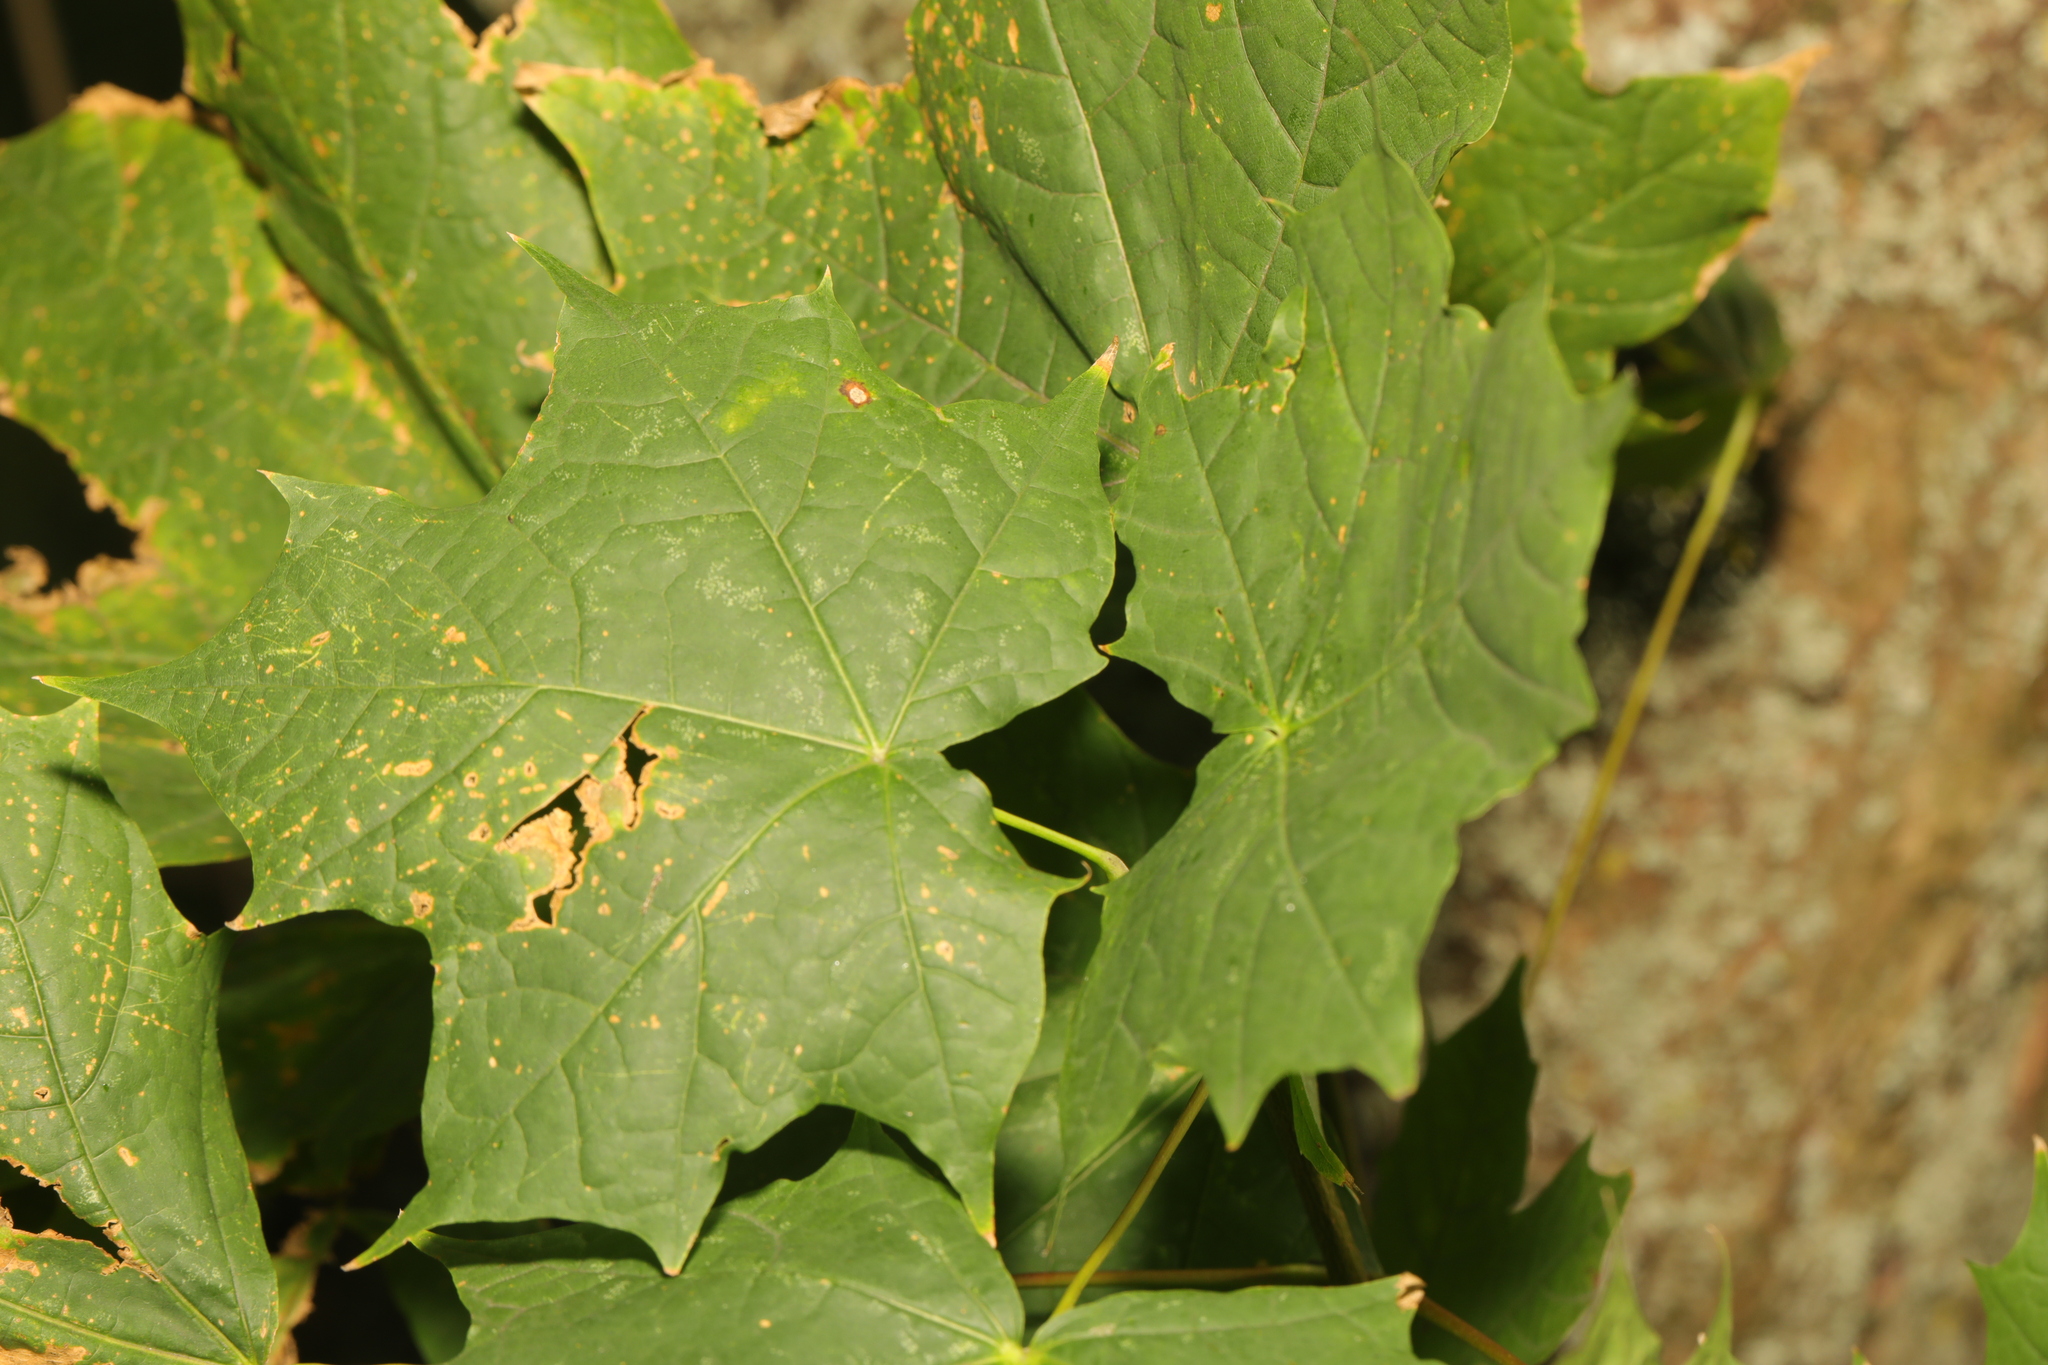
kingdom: Plantae
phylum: Tracheophyta
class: Magnoliopsida
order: Sapindales
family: Sapindaceae
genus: Acer
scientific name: Acer platanoides
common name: Norway maple
